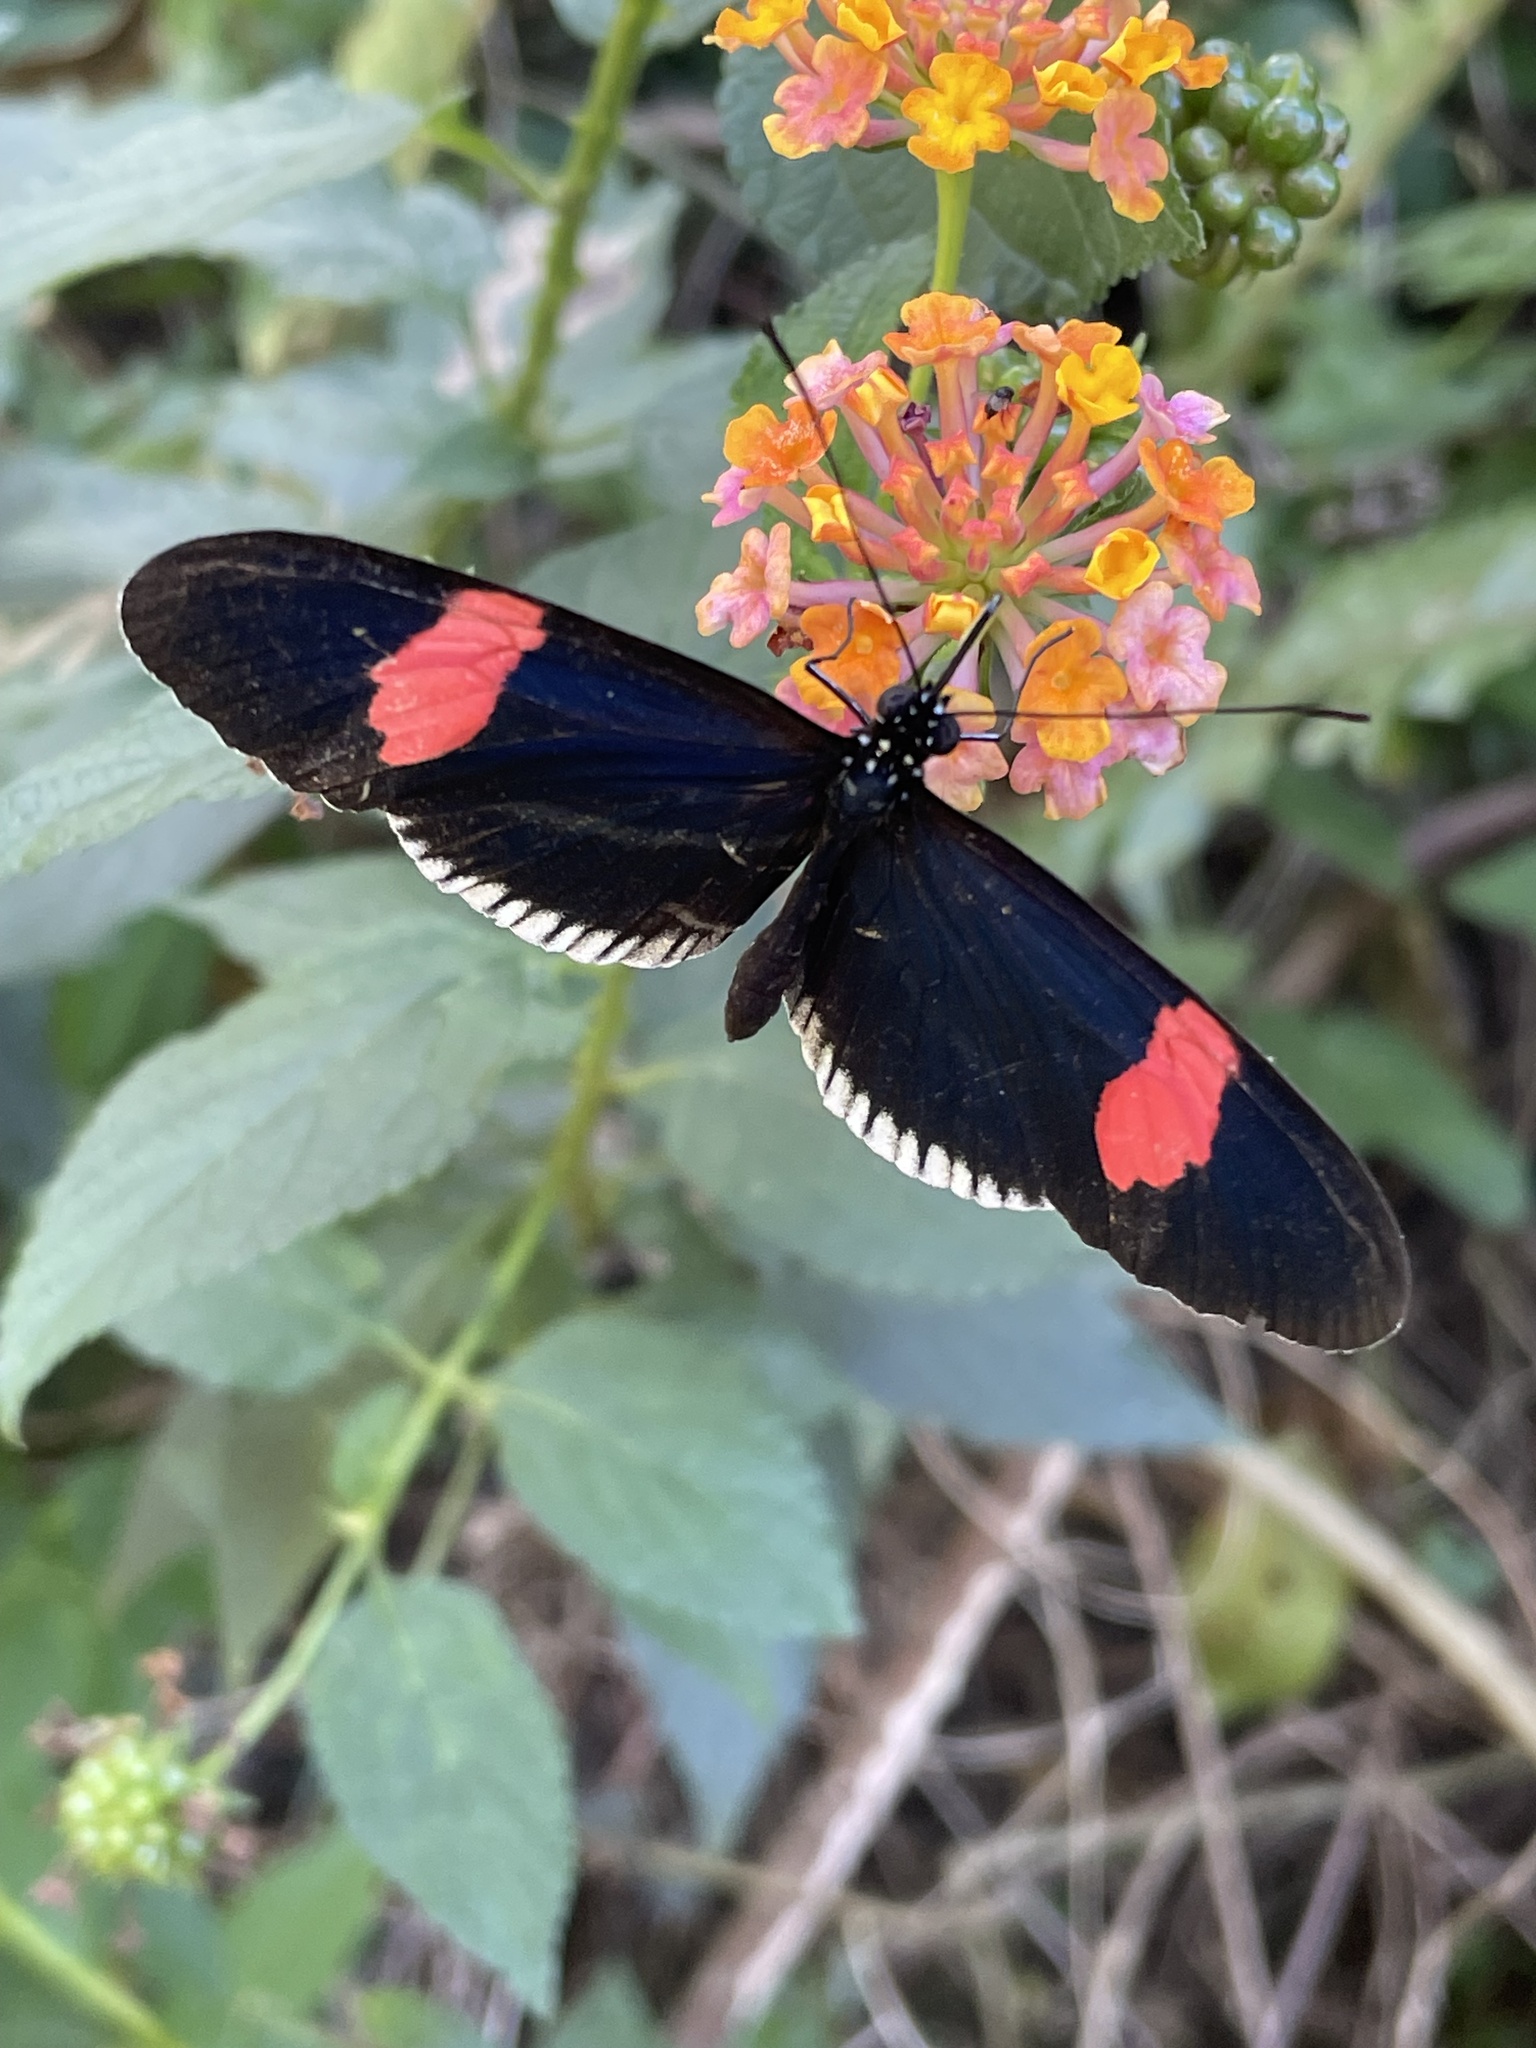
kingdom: Animalia
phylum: Arthropoda
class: Insecta
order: Lepidoptera
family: Nymphalidae
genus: Heliconius
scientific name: Heliconius erato
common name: Common patch longwing
